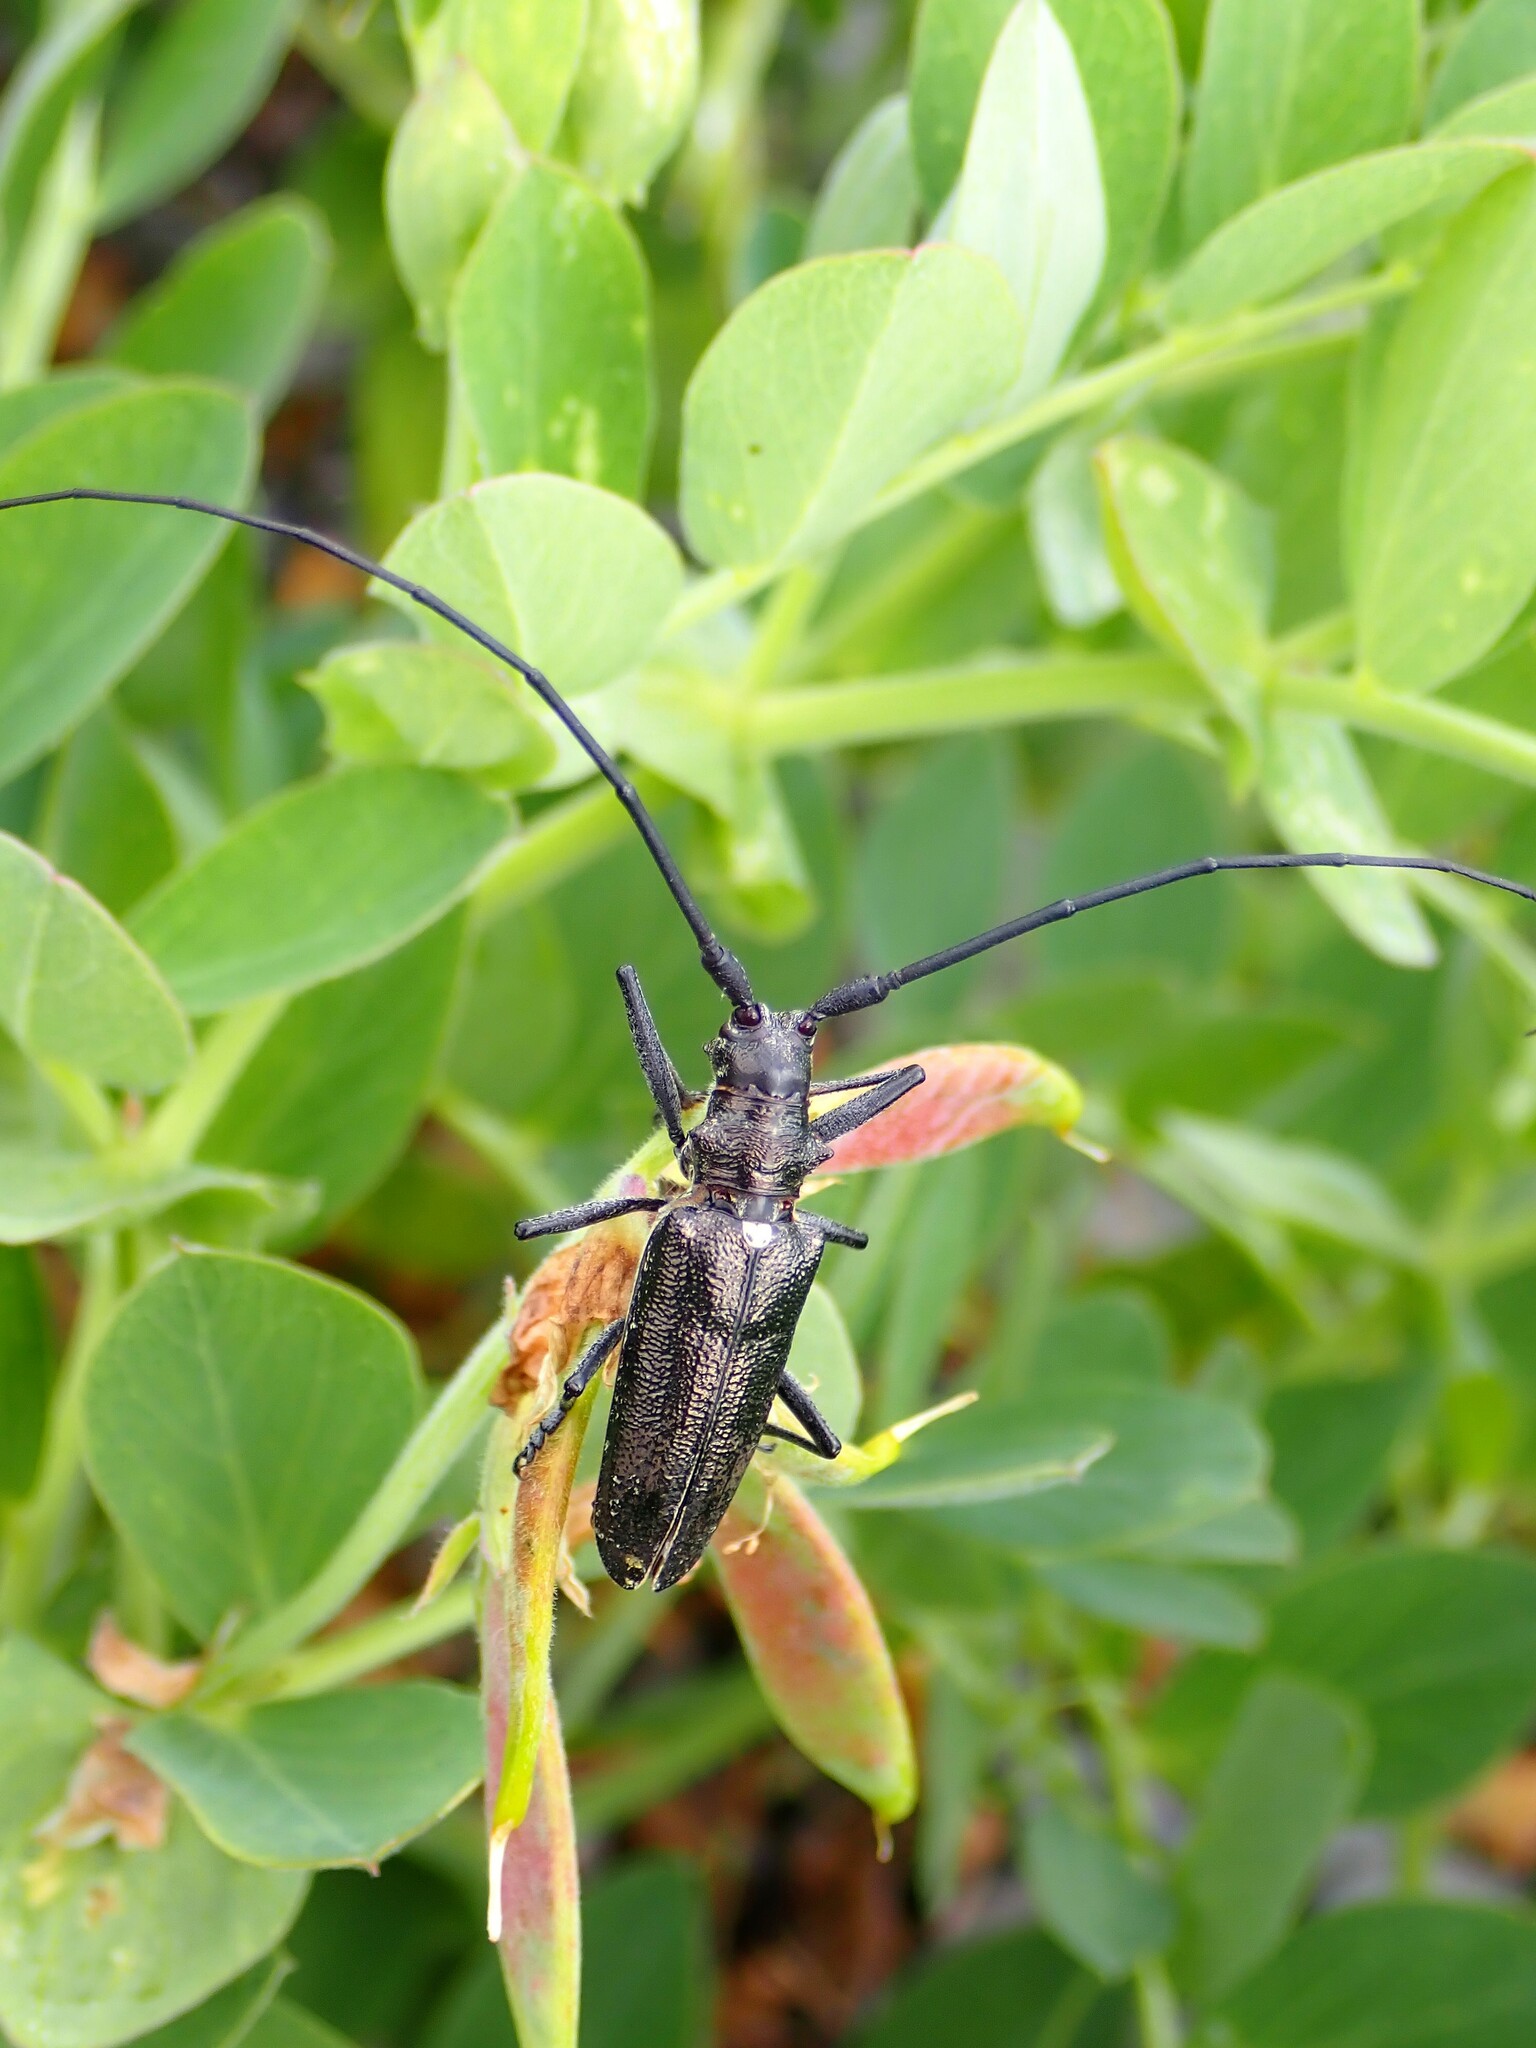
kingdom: Animalia
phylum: Arthropoda
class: Insecta
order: Coleoptera
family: Cerambycidae
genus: Monochamus
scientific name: Monochamus scutellatus
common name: White-spotted sawyer beetle
